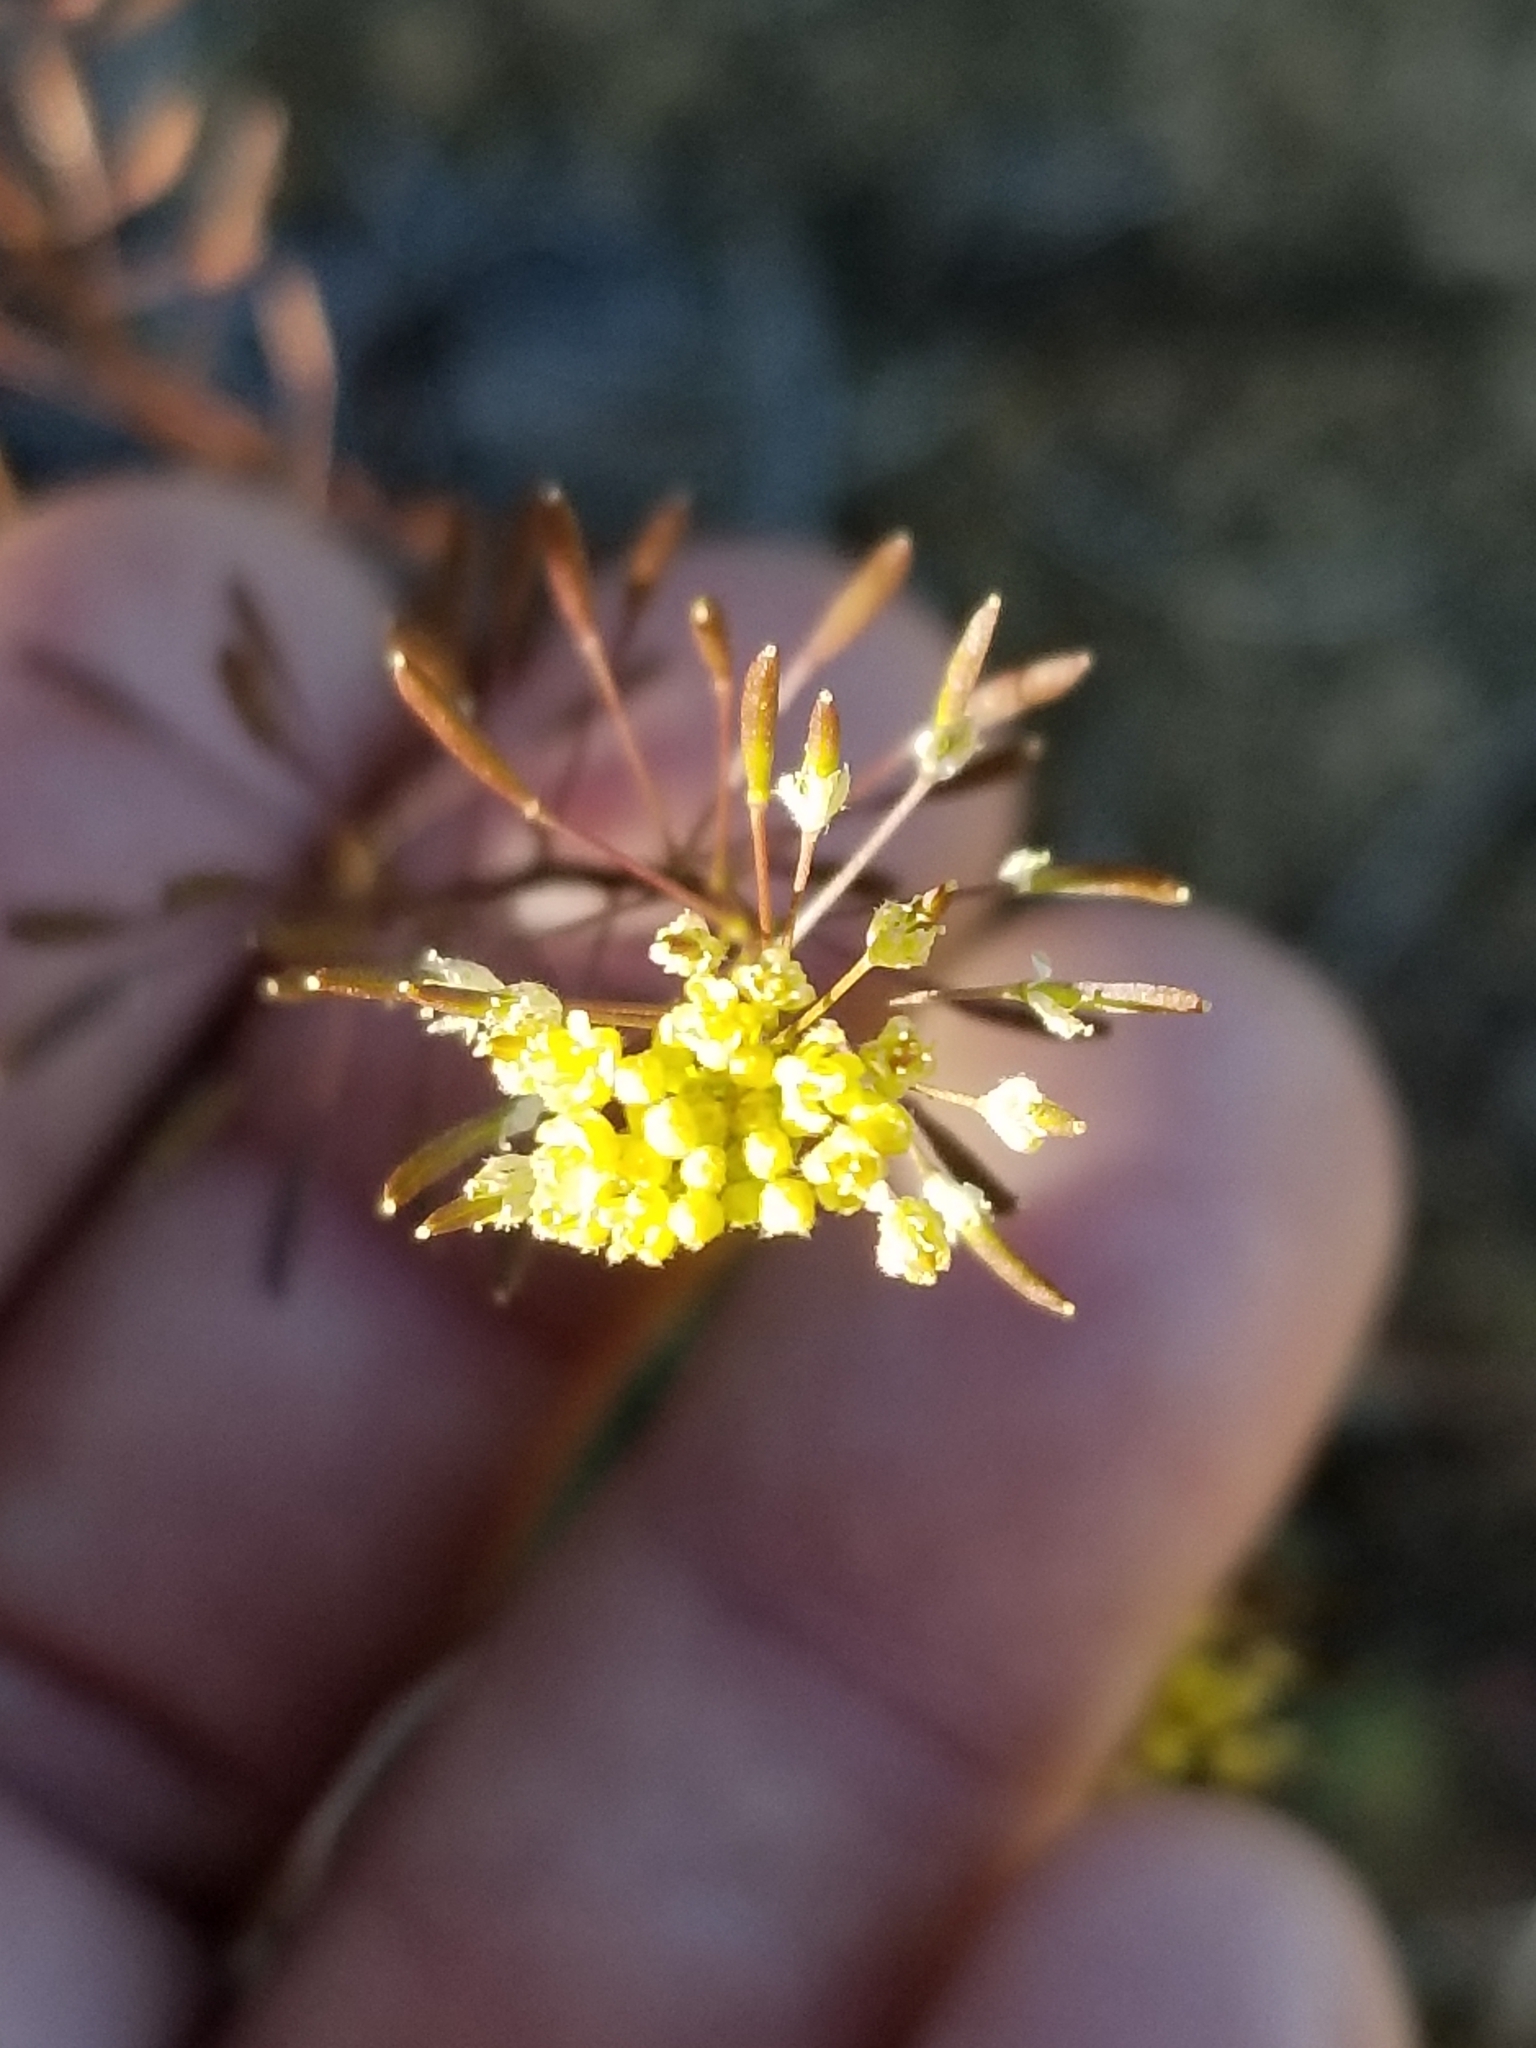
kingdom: Plantae
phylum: Tracheophyta
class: Magnoliopsida
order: Brassicales
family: Brassicaceae
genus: Descurainia
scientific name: Descurainia pinnata
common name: Western tansy mustard
